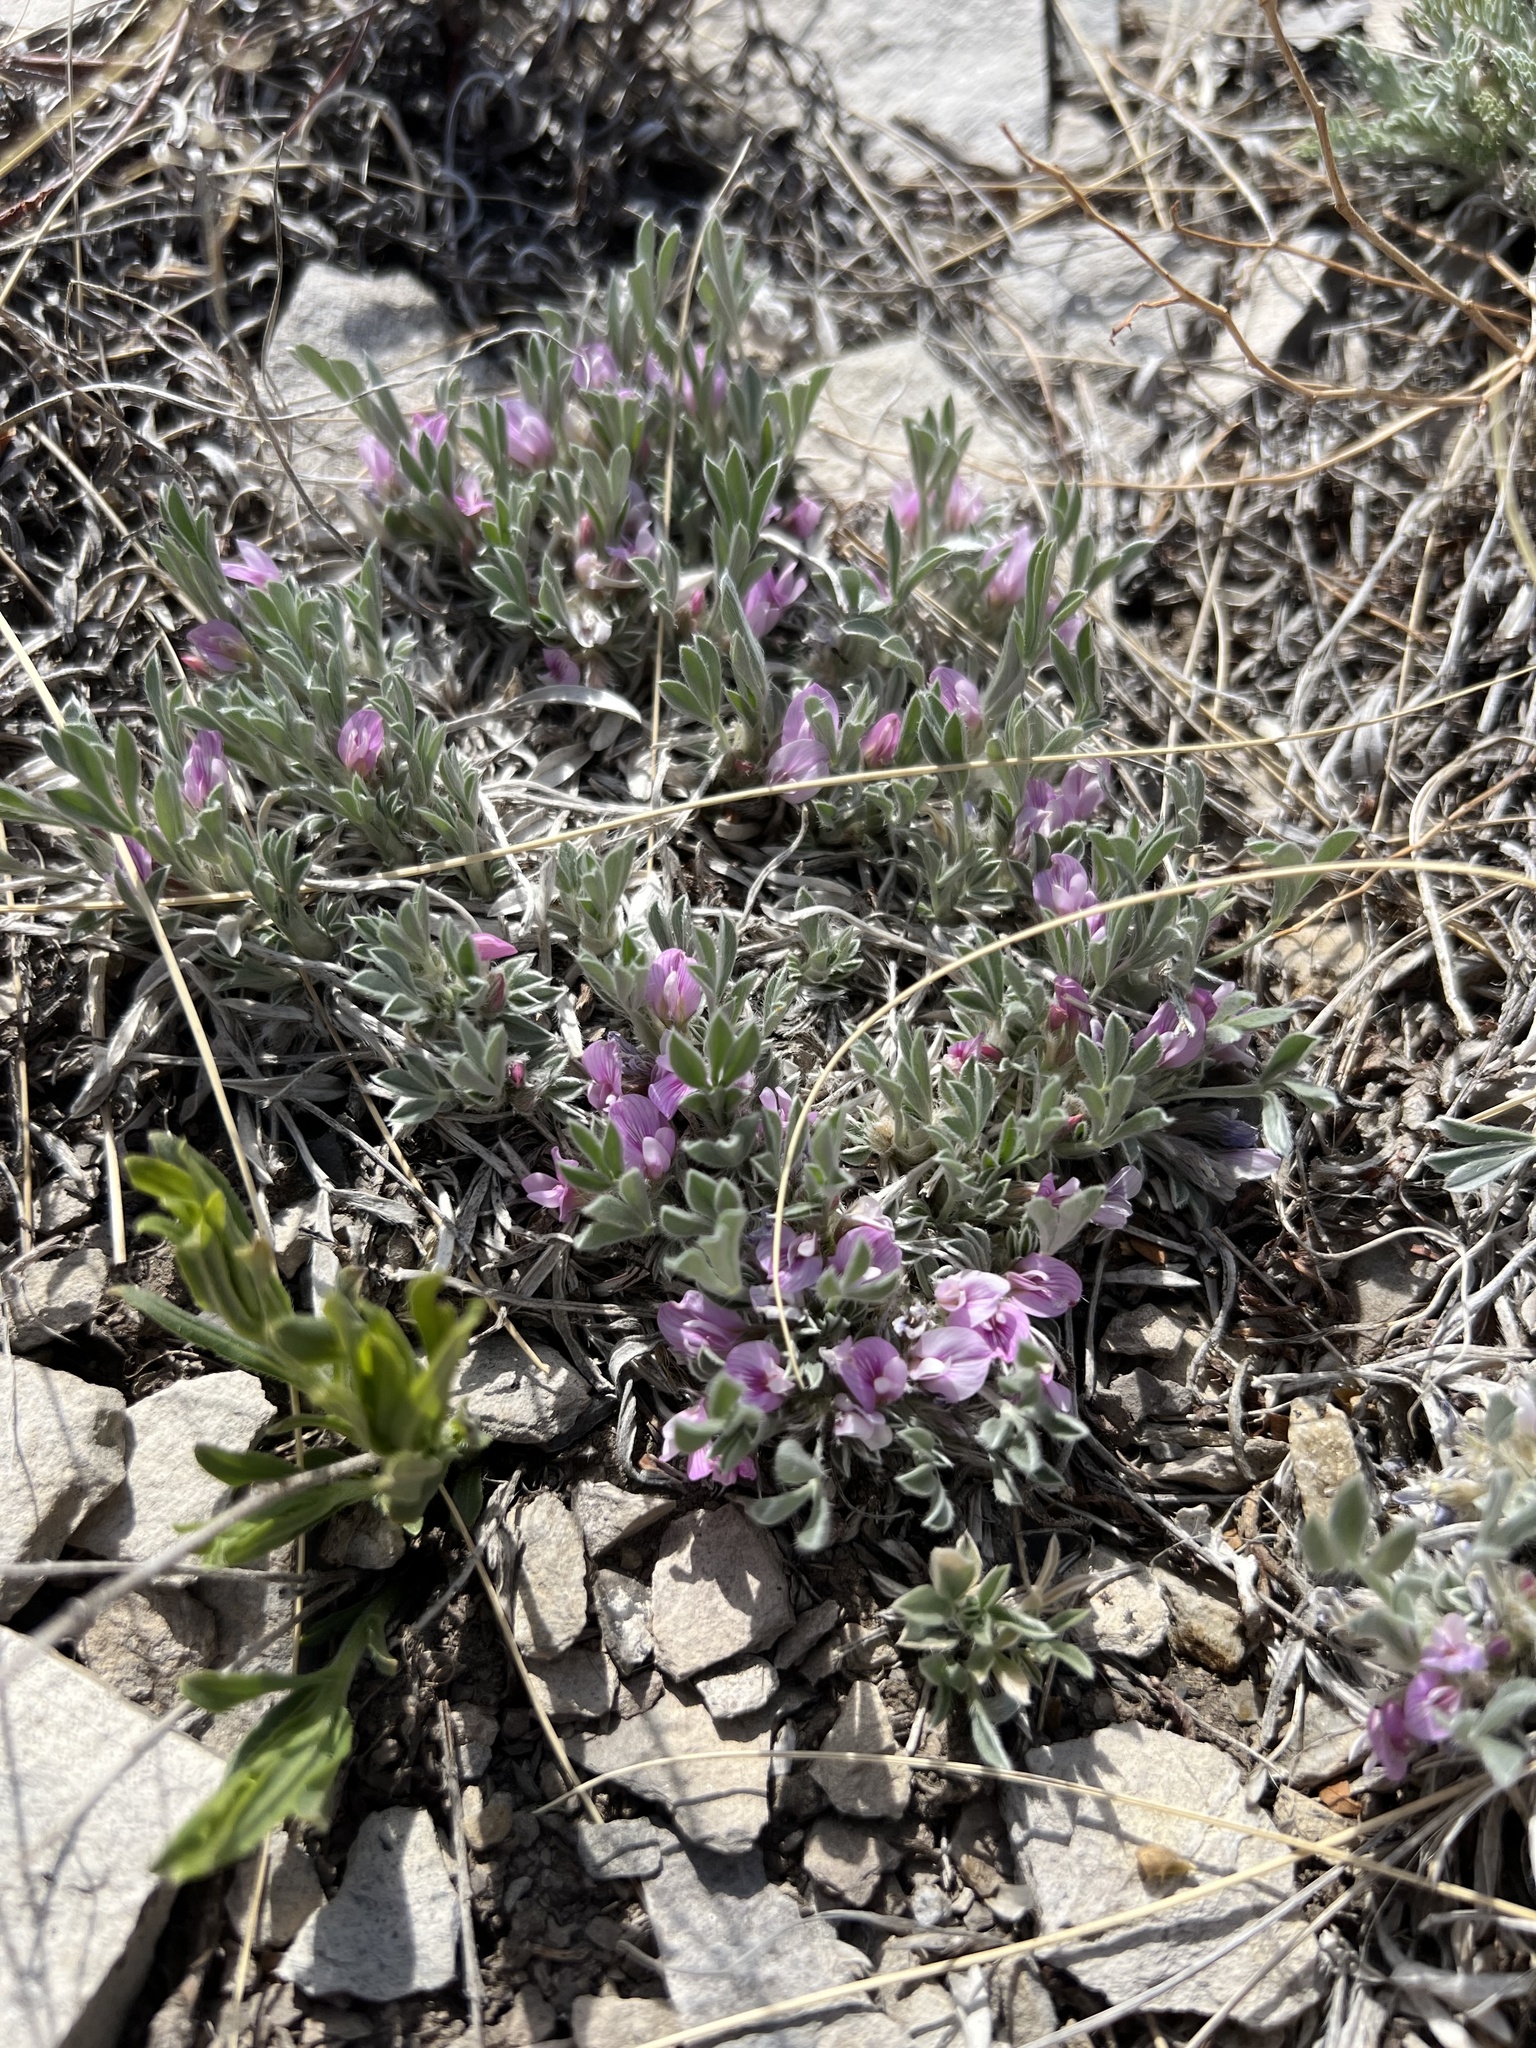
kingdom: Plantae
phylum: Tracheophyta
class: Magnoliopsida
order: Fabales
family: Fabaceae
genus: Astragalus
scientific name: Astragalus tridactylicus
